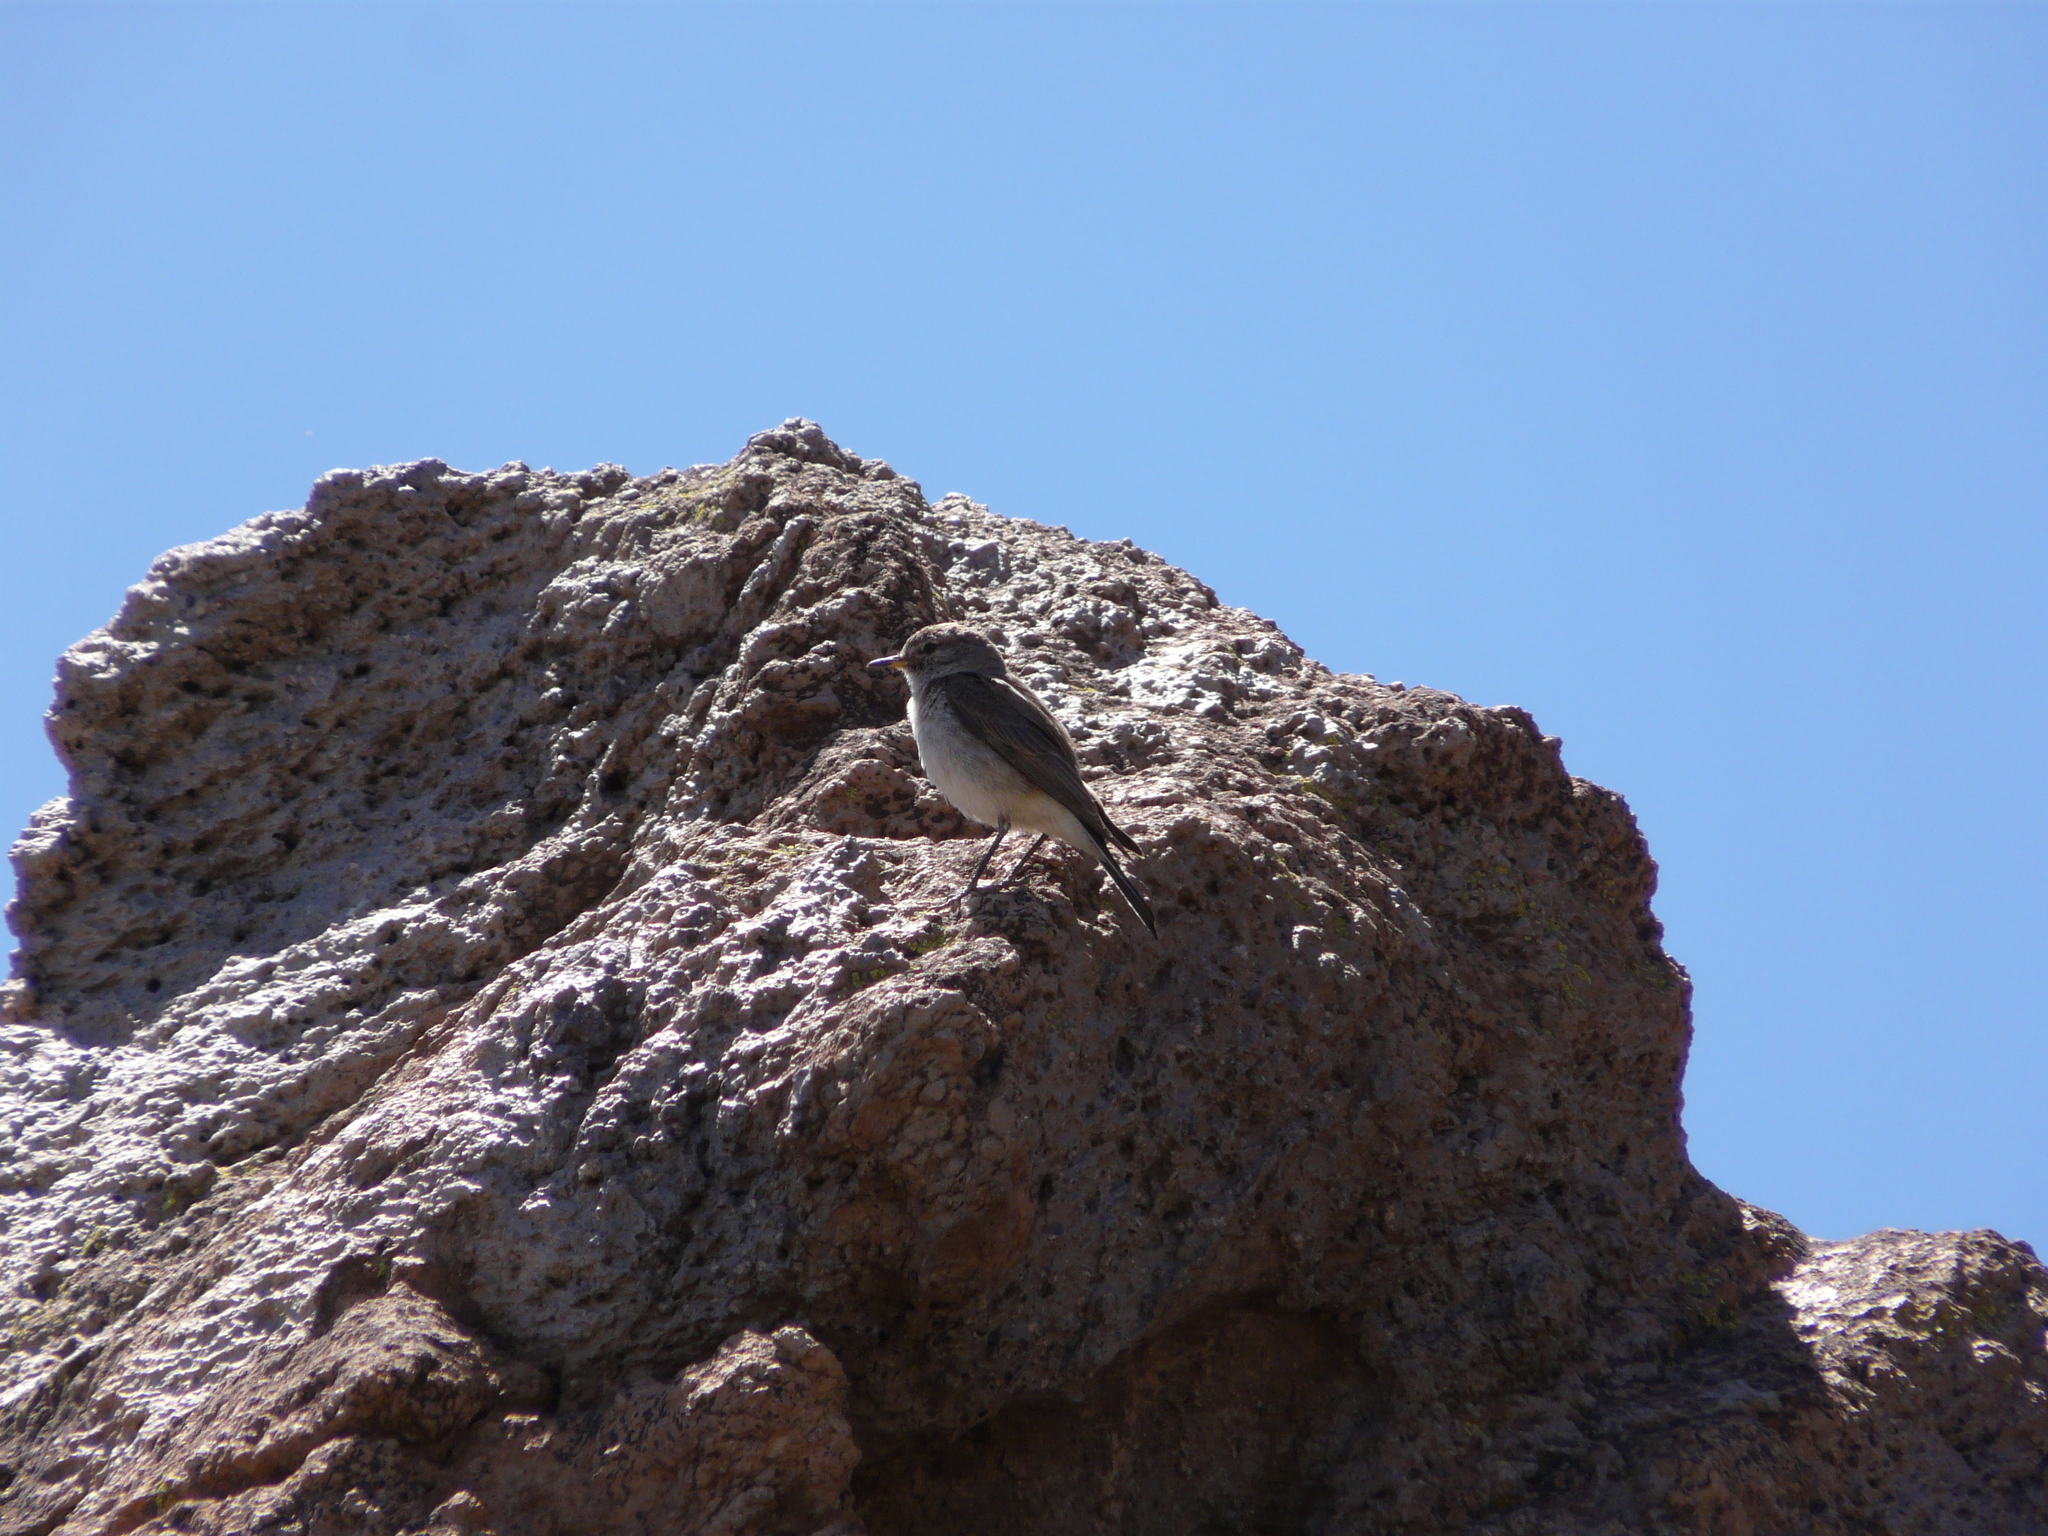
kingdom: Animalia
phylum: Chordata
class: Aves
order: Passeriformes
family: Tyrannidae
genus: Muscisaxicola
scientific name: Muscisaxicola maculirostris
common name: Spot-billed ground tyrant
